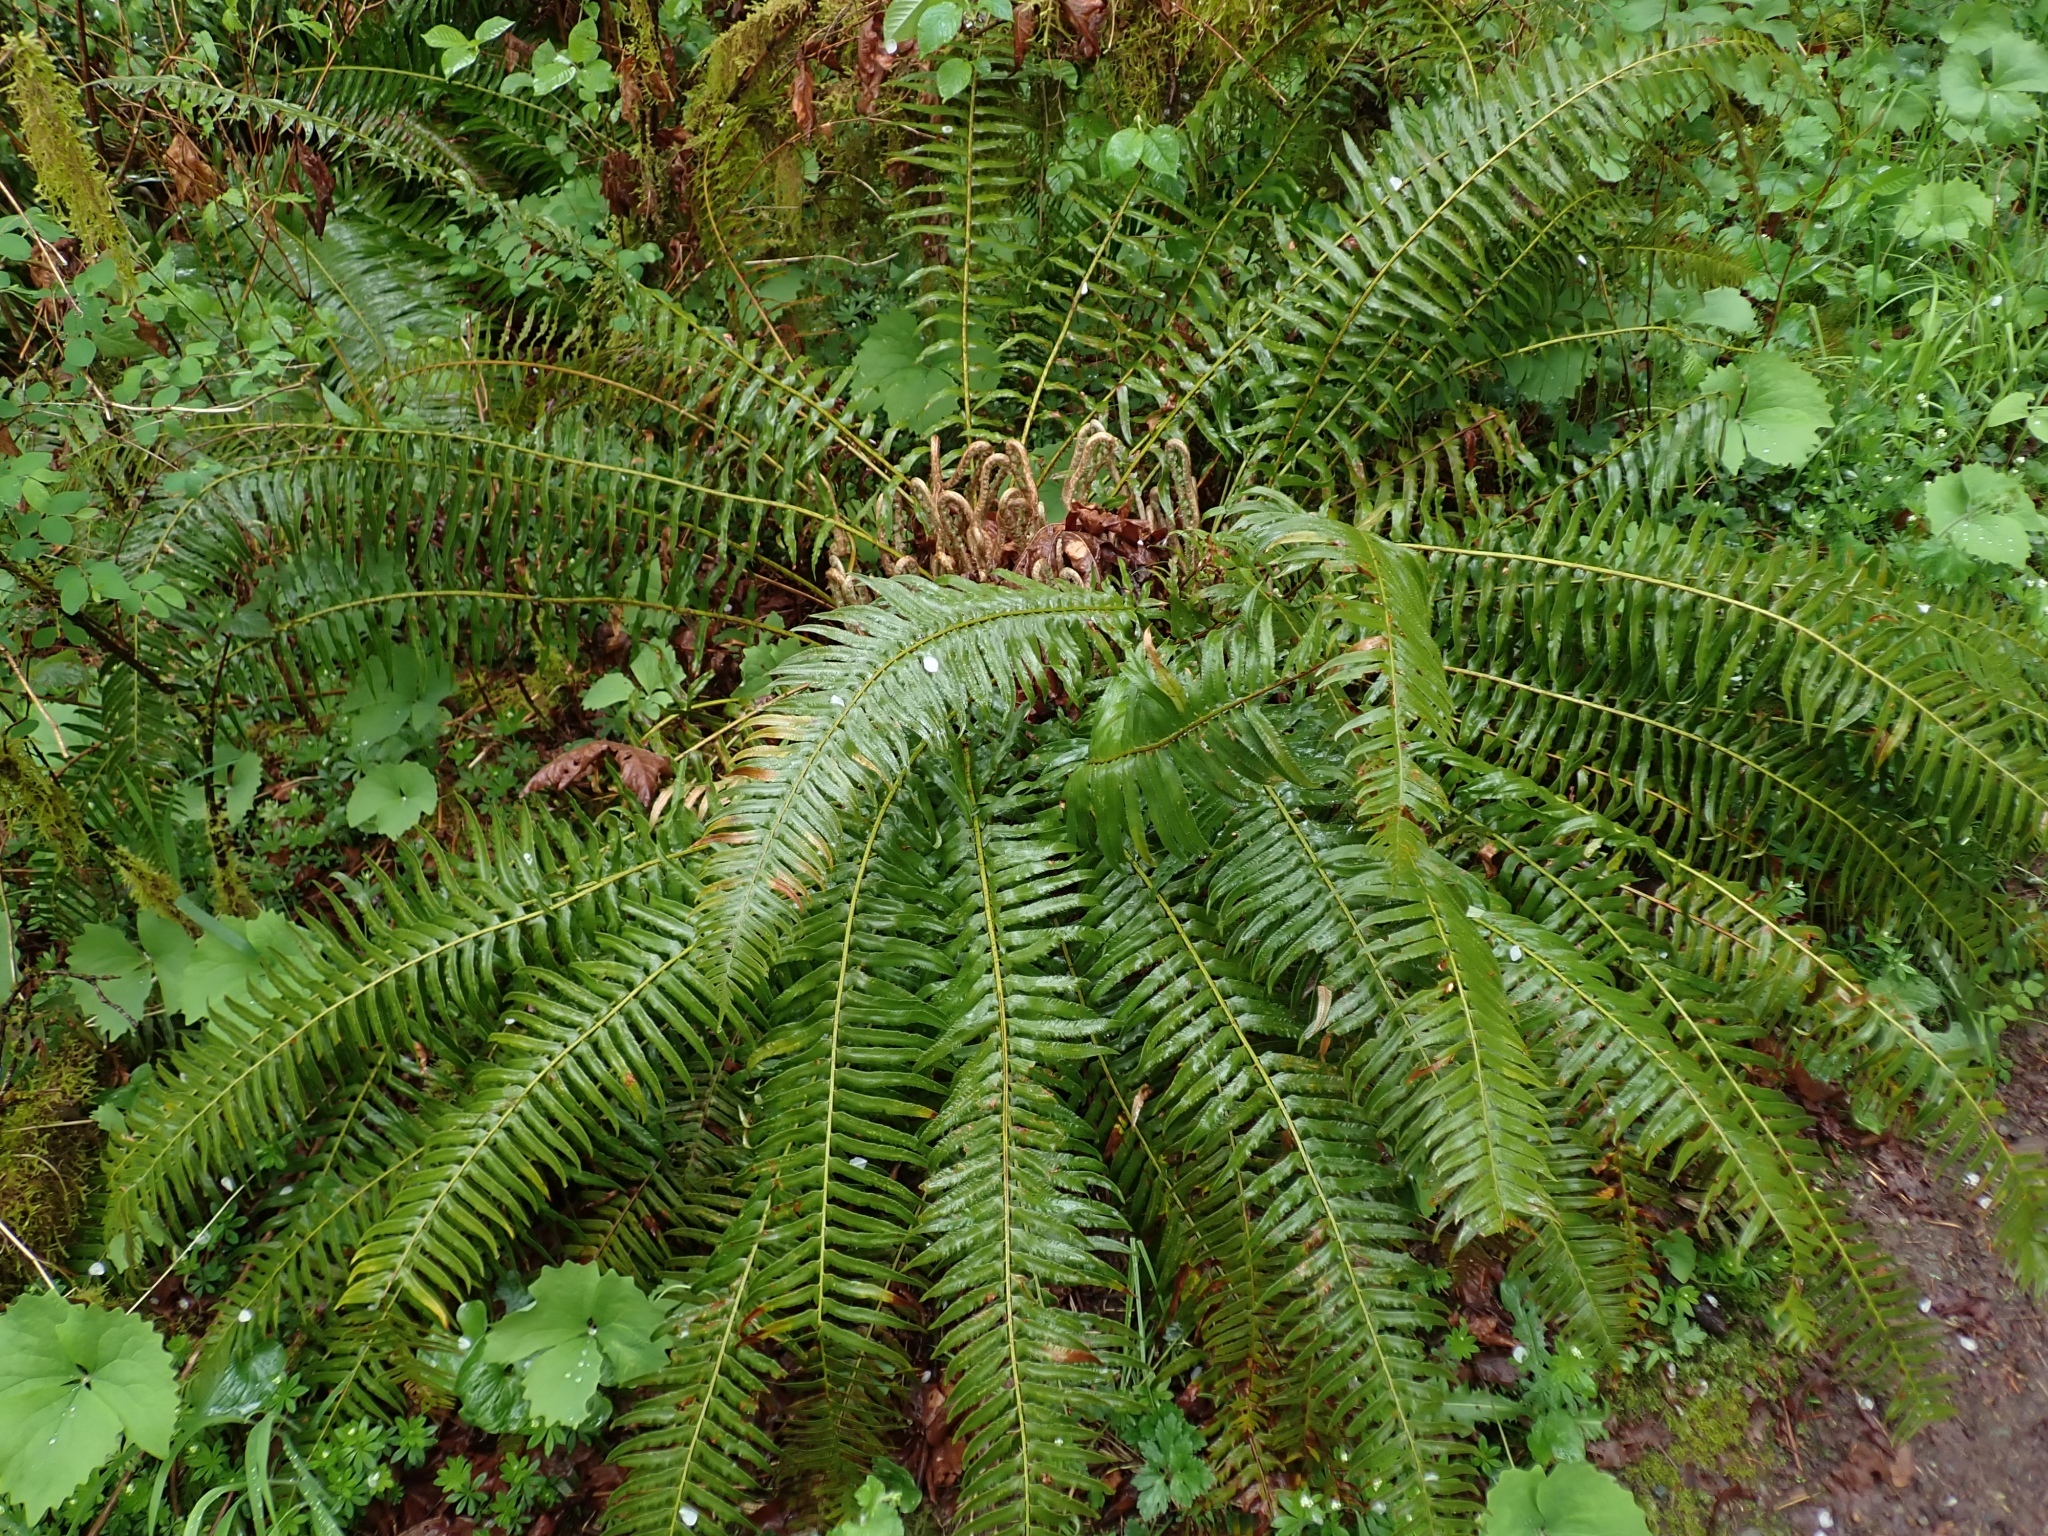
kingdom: Plantae
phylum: Tracheophyta
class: Polypodiopsida
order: Polypodiales
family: Dryopteridaceae
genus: Polystichum
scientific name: Polystichum munitum
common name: Western sword-fern
